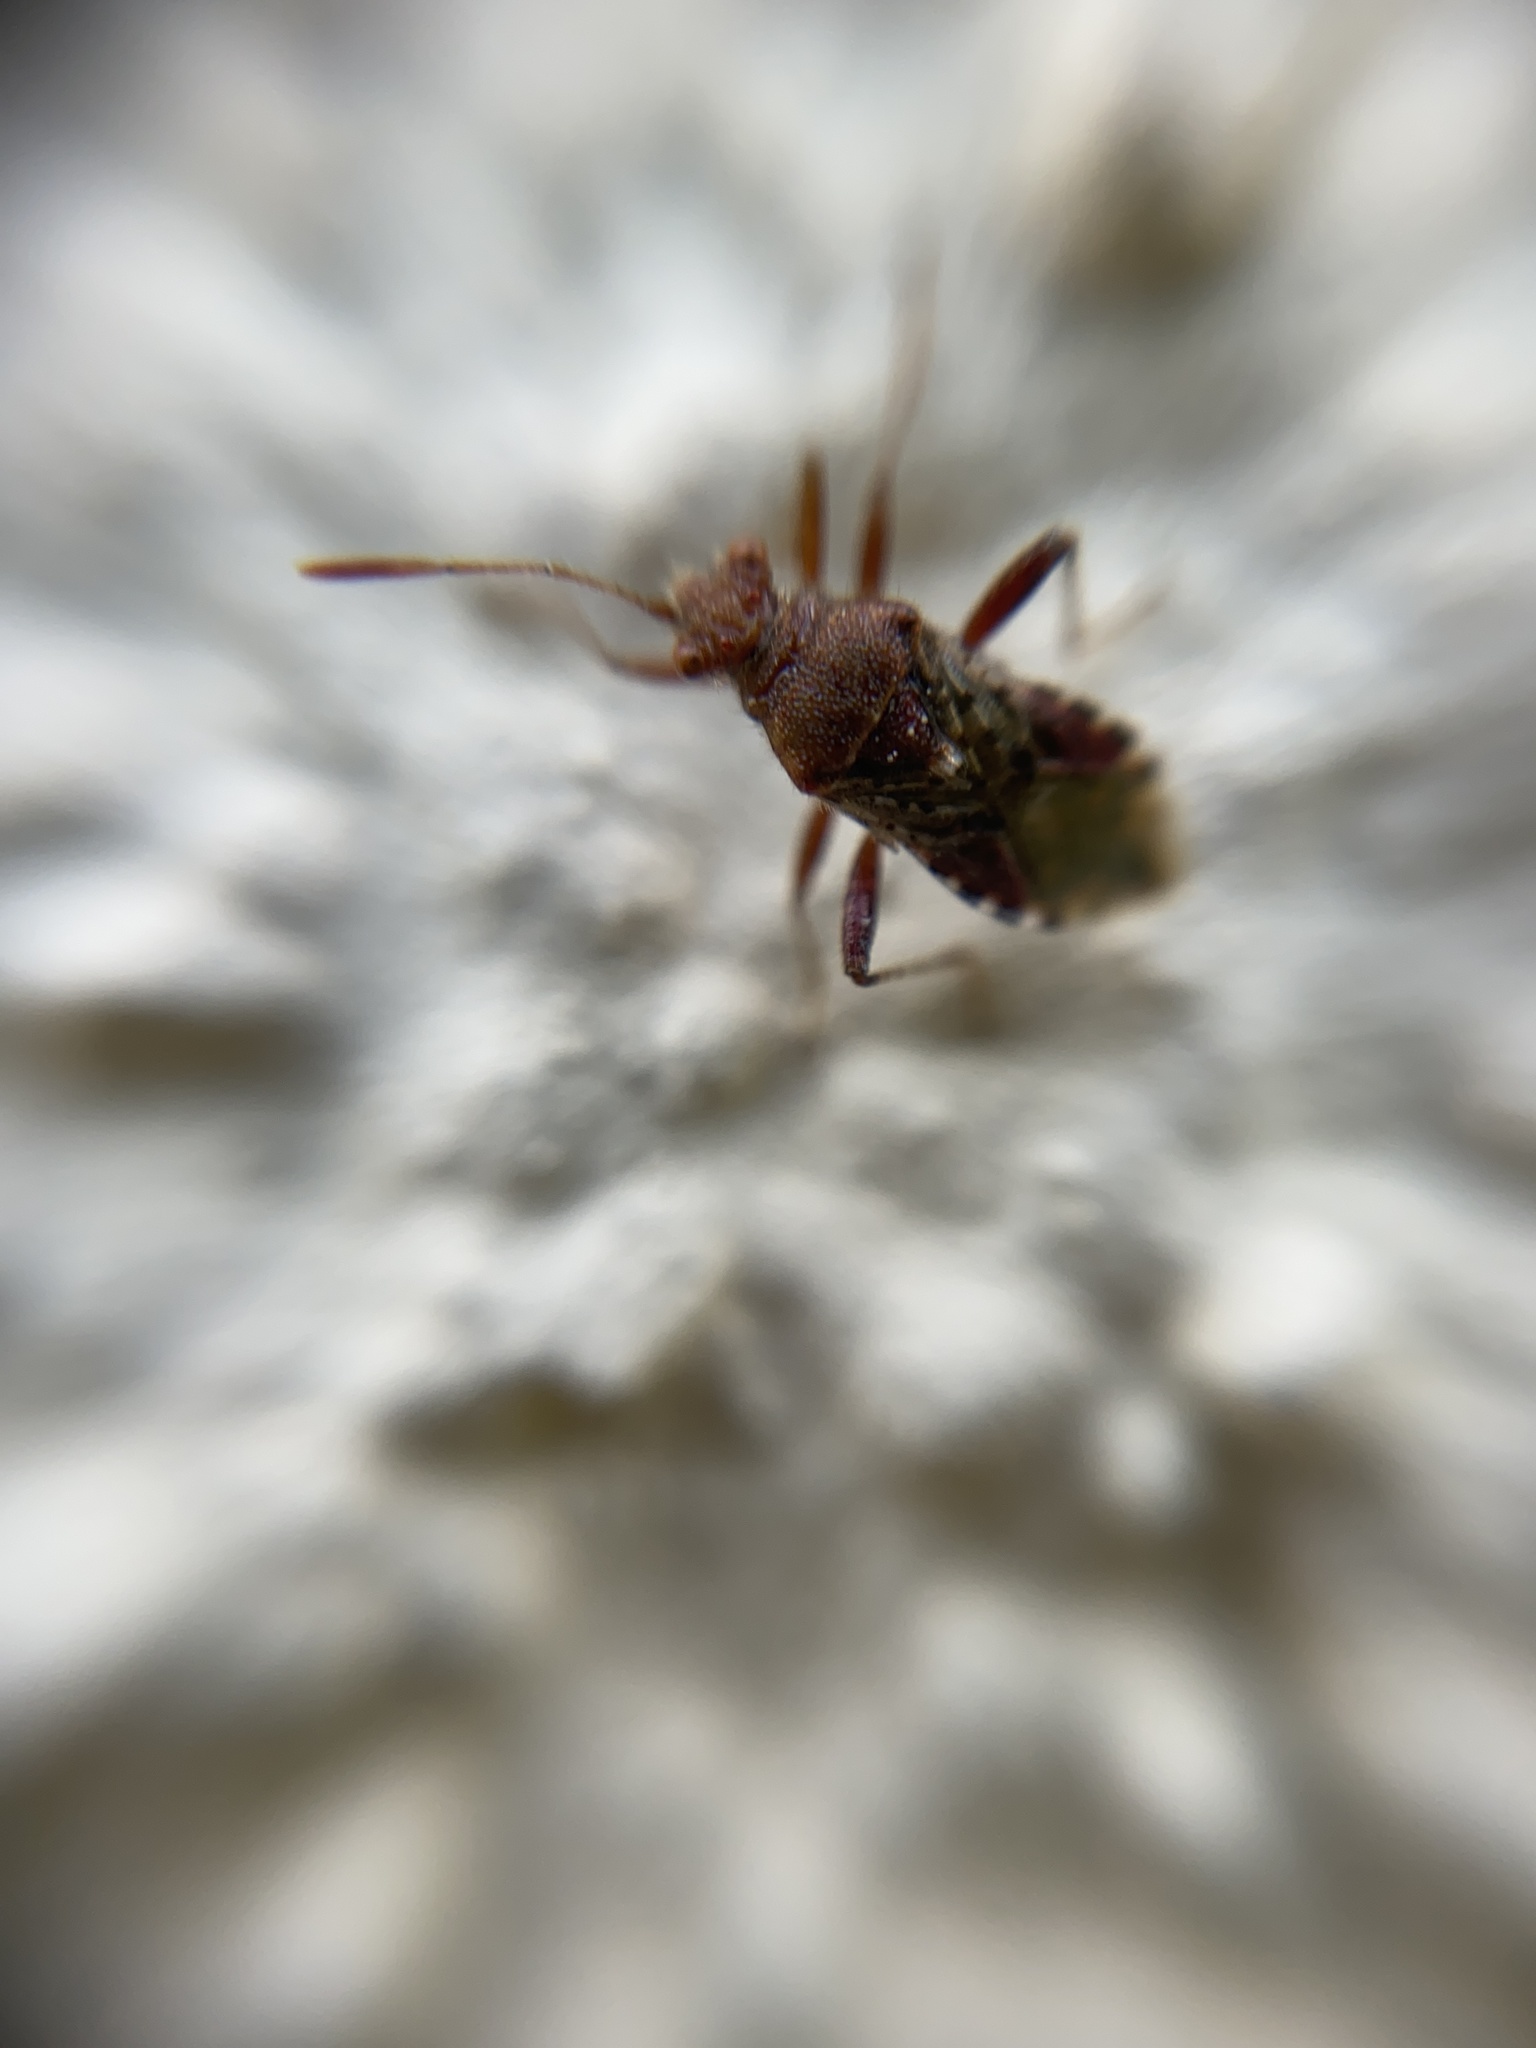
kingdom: Animalia
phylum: Arthropoda
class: Insecta
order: Hemiptera
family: Rhopalidae
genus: Rhopalus
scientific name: Rhopalus subrufus
